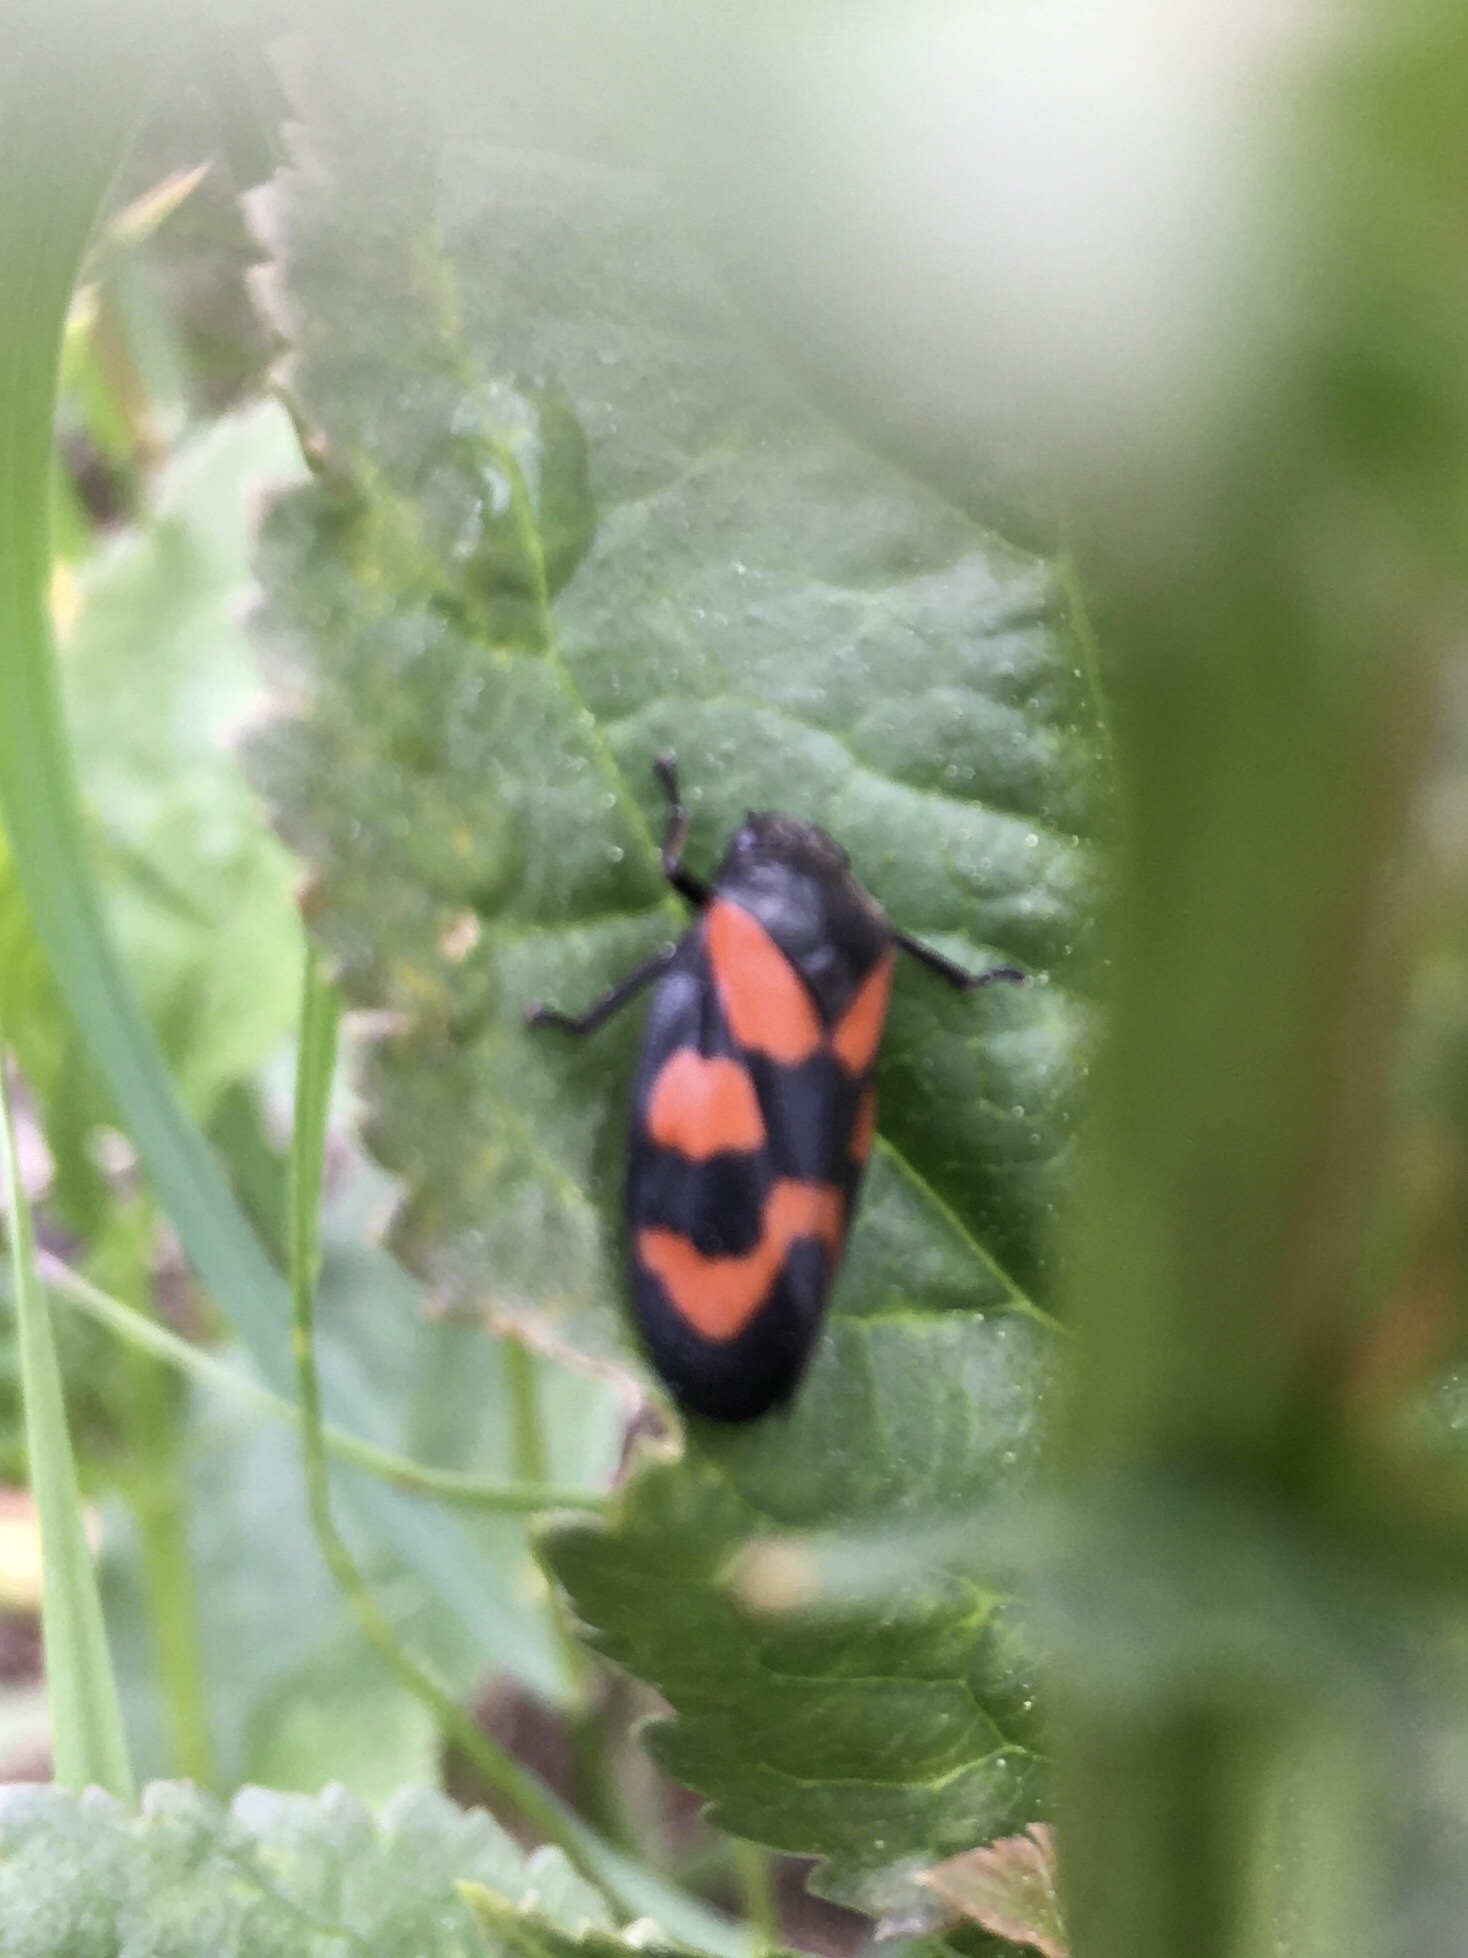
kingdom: Animalia
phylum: Arthropoda
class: Insecta
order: Hemiptera
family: Cercopidae
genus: Cercopis
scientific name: Cercopis vulnerata
